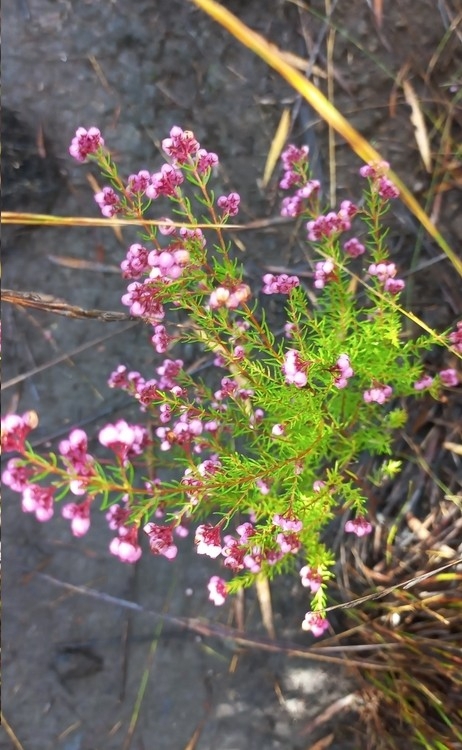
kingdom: Plantae
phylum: Tracheophyta
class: Magnoliopsida
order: Ericales
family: Ericaceae
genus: Erica
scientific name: Erica multumbellifera
